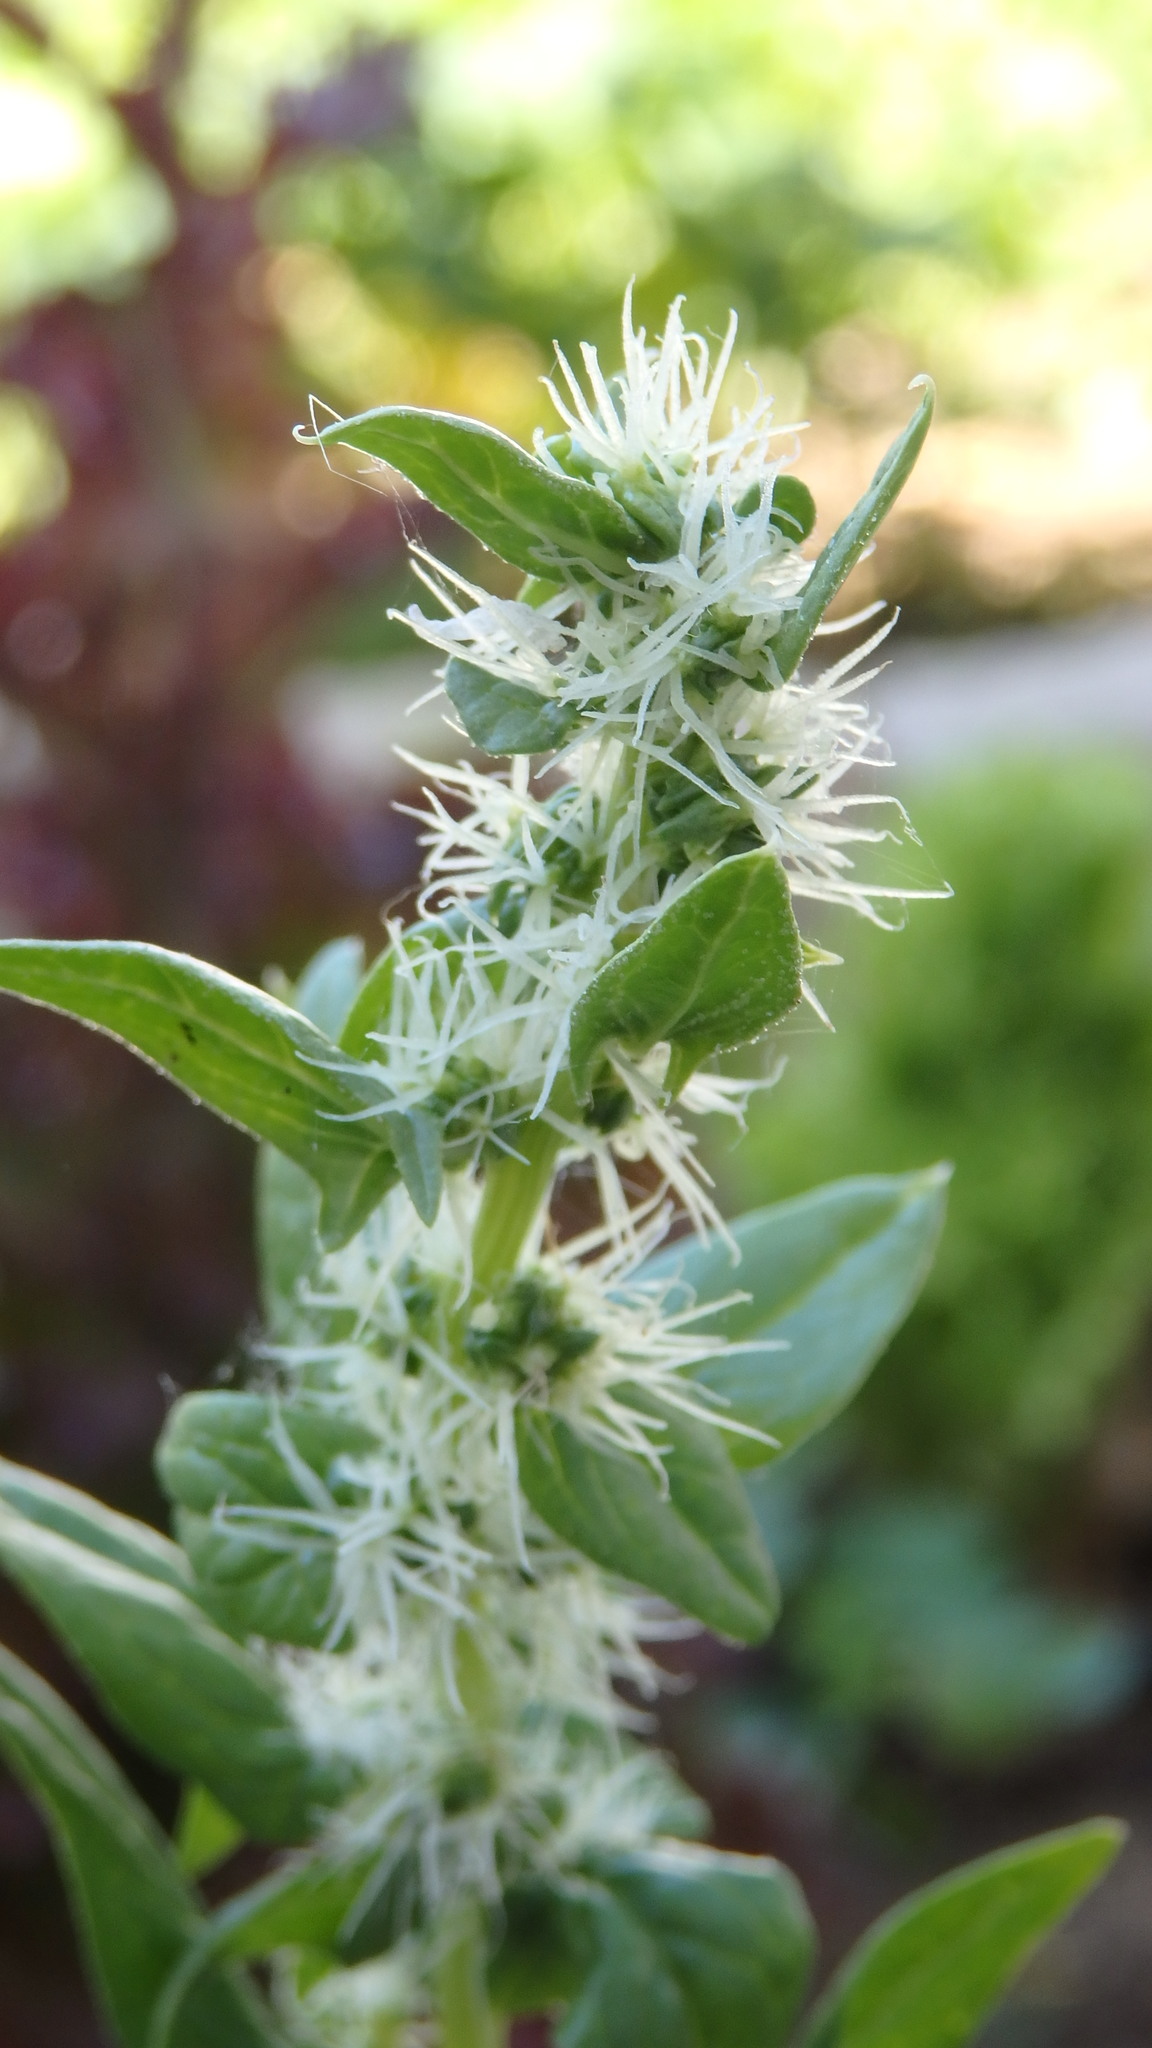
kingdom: Plantae
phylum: Tracheophyta
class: Magnoliopsida
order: Caryophyllales
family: Amaranthaceae
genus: Spinacia
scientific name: Spinacia oleracea
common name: Spinach
